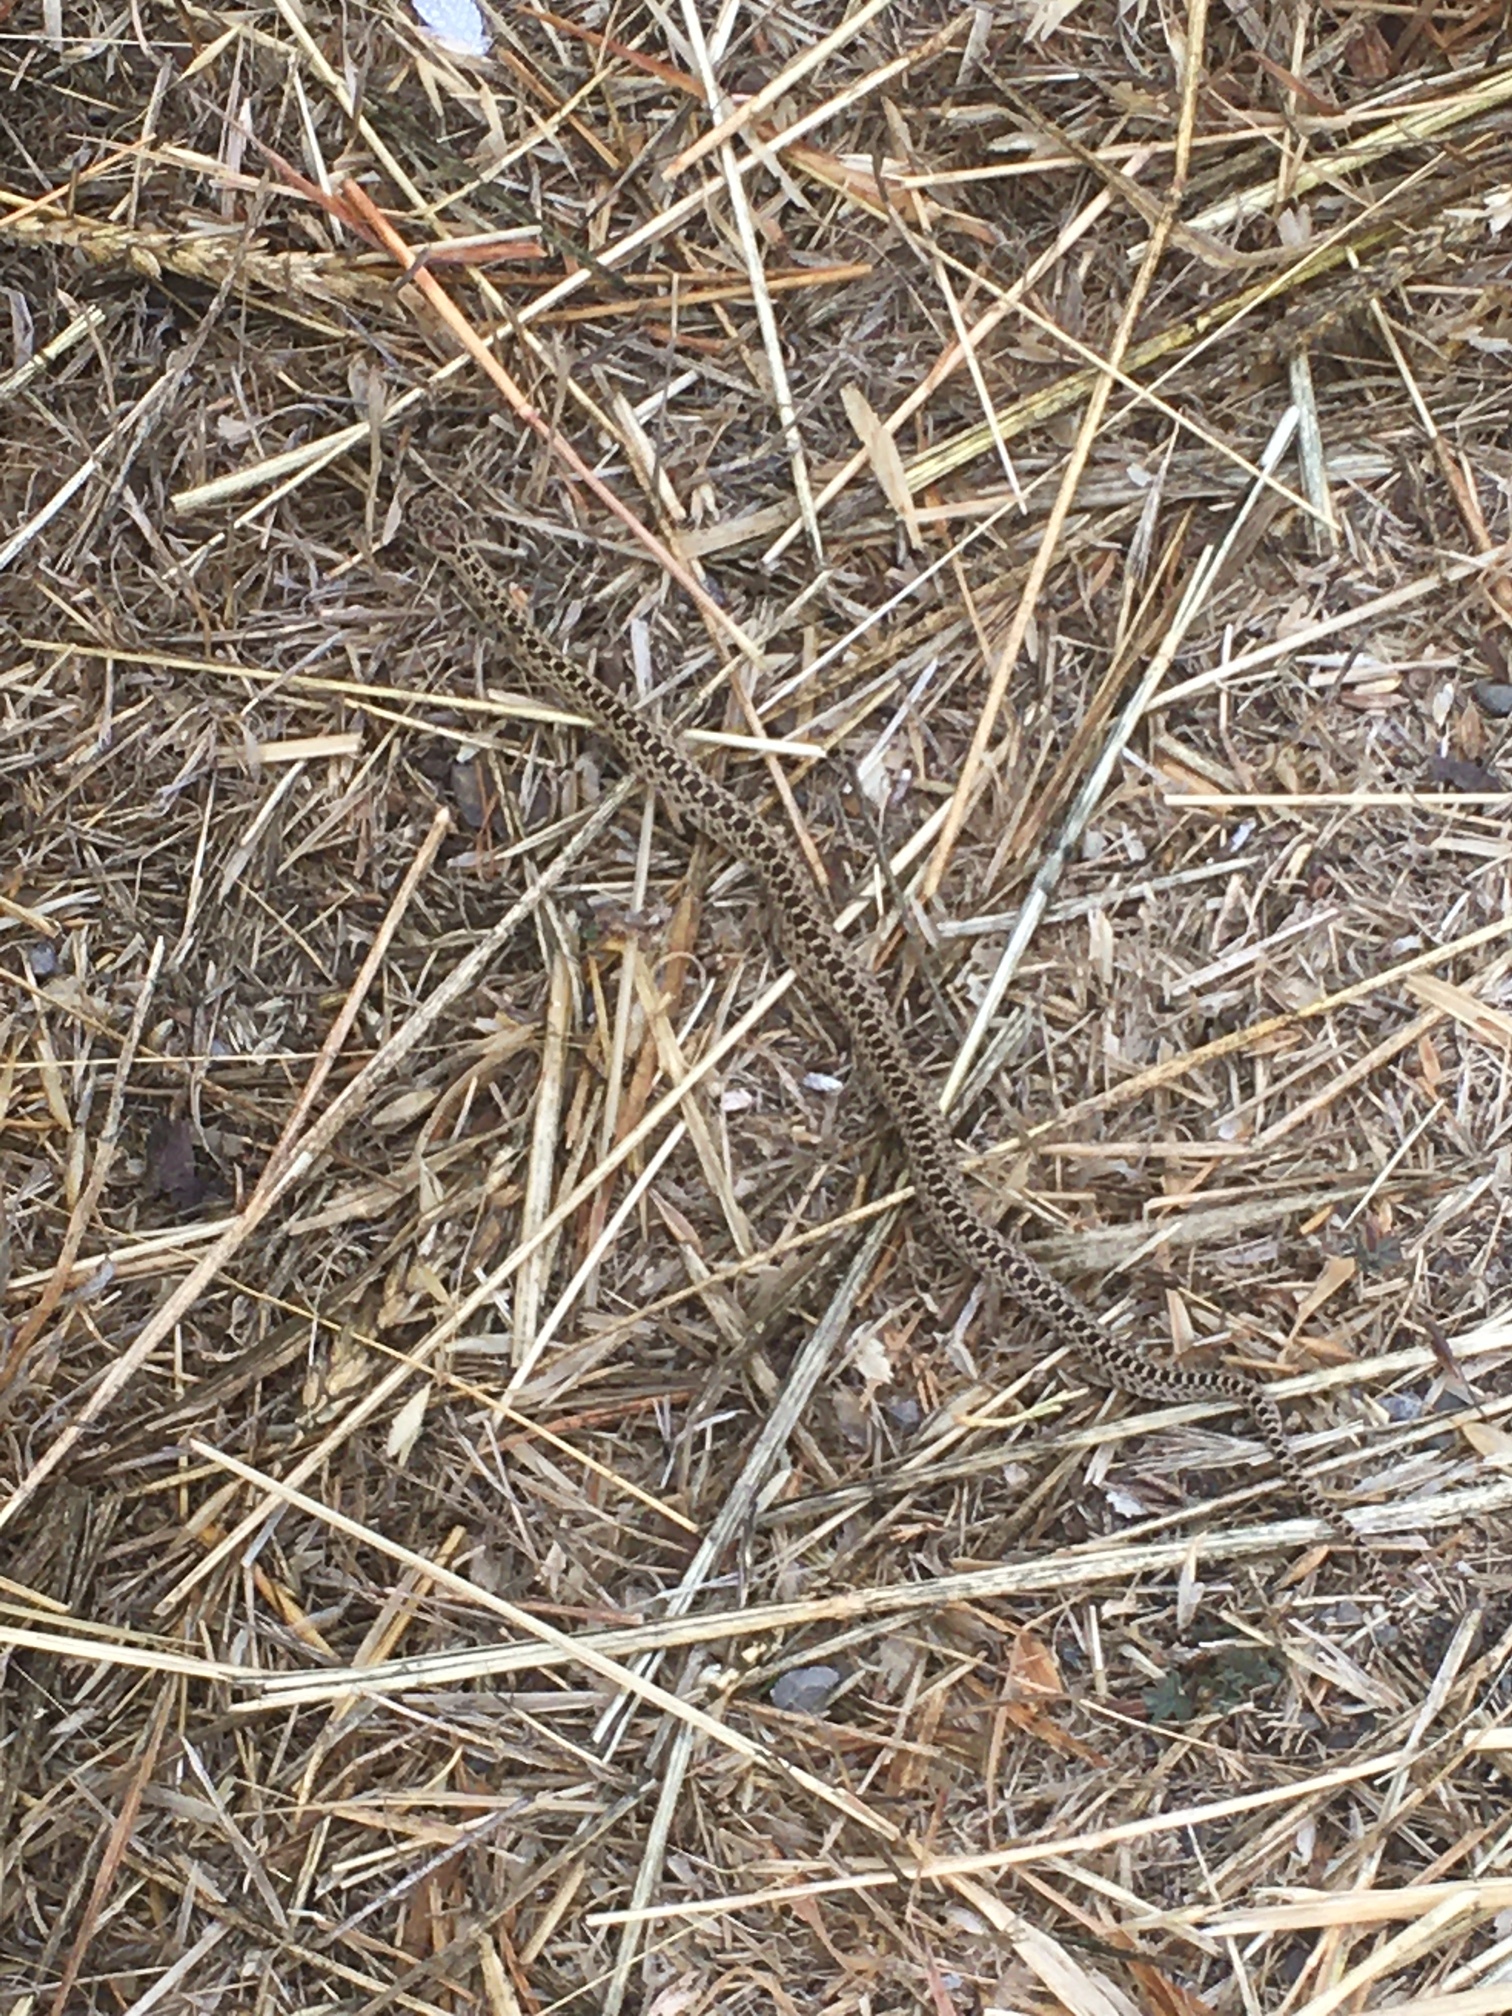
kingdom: Animalia
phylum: Chordata
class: Squamata
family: Colubridae
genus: Pituophis
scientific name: Pituophis catenifer
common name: Gopher snake
